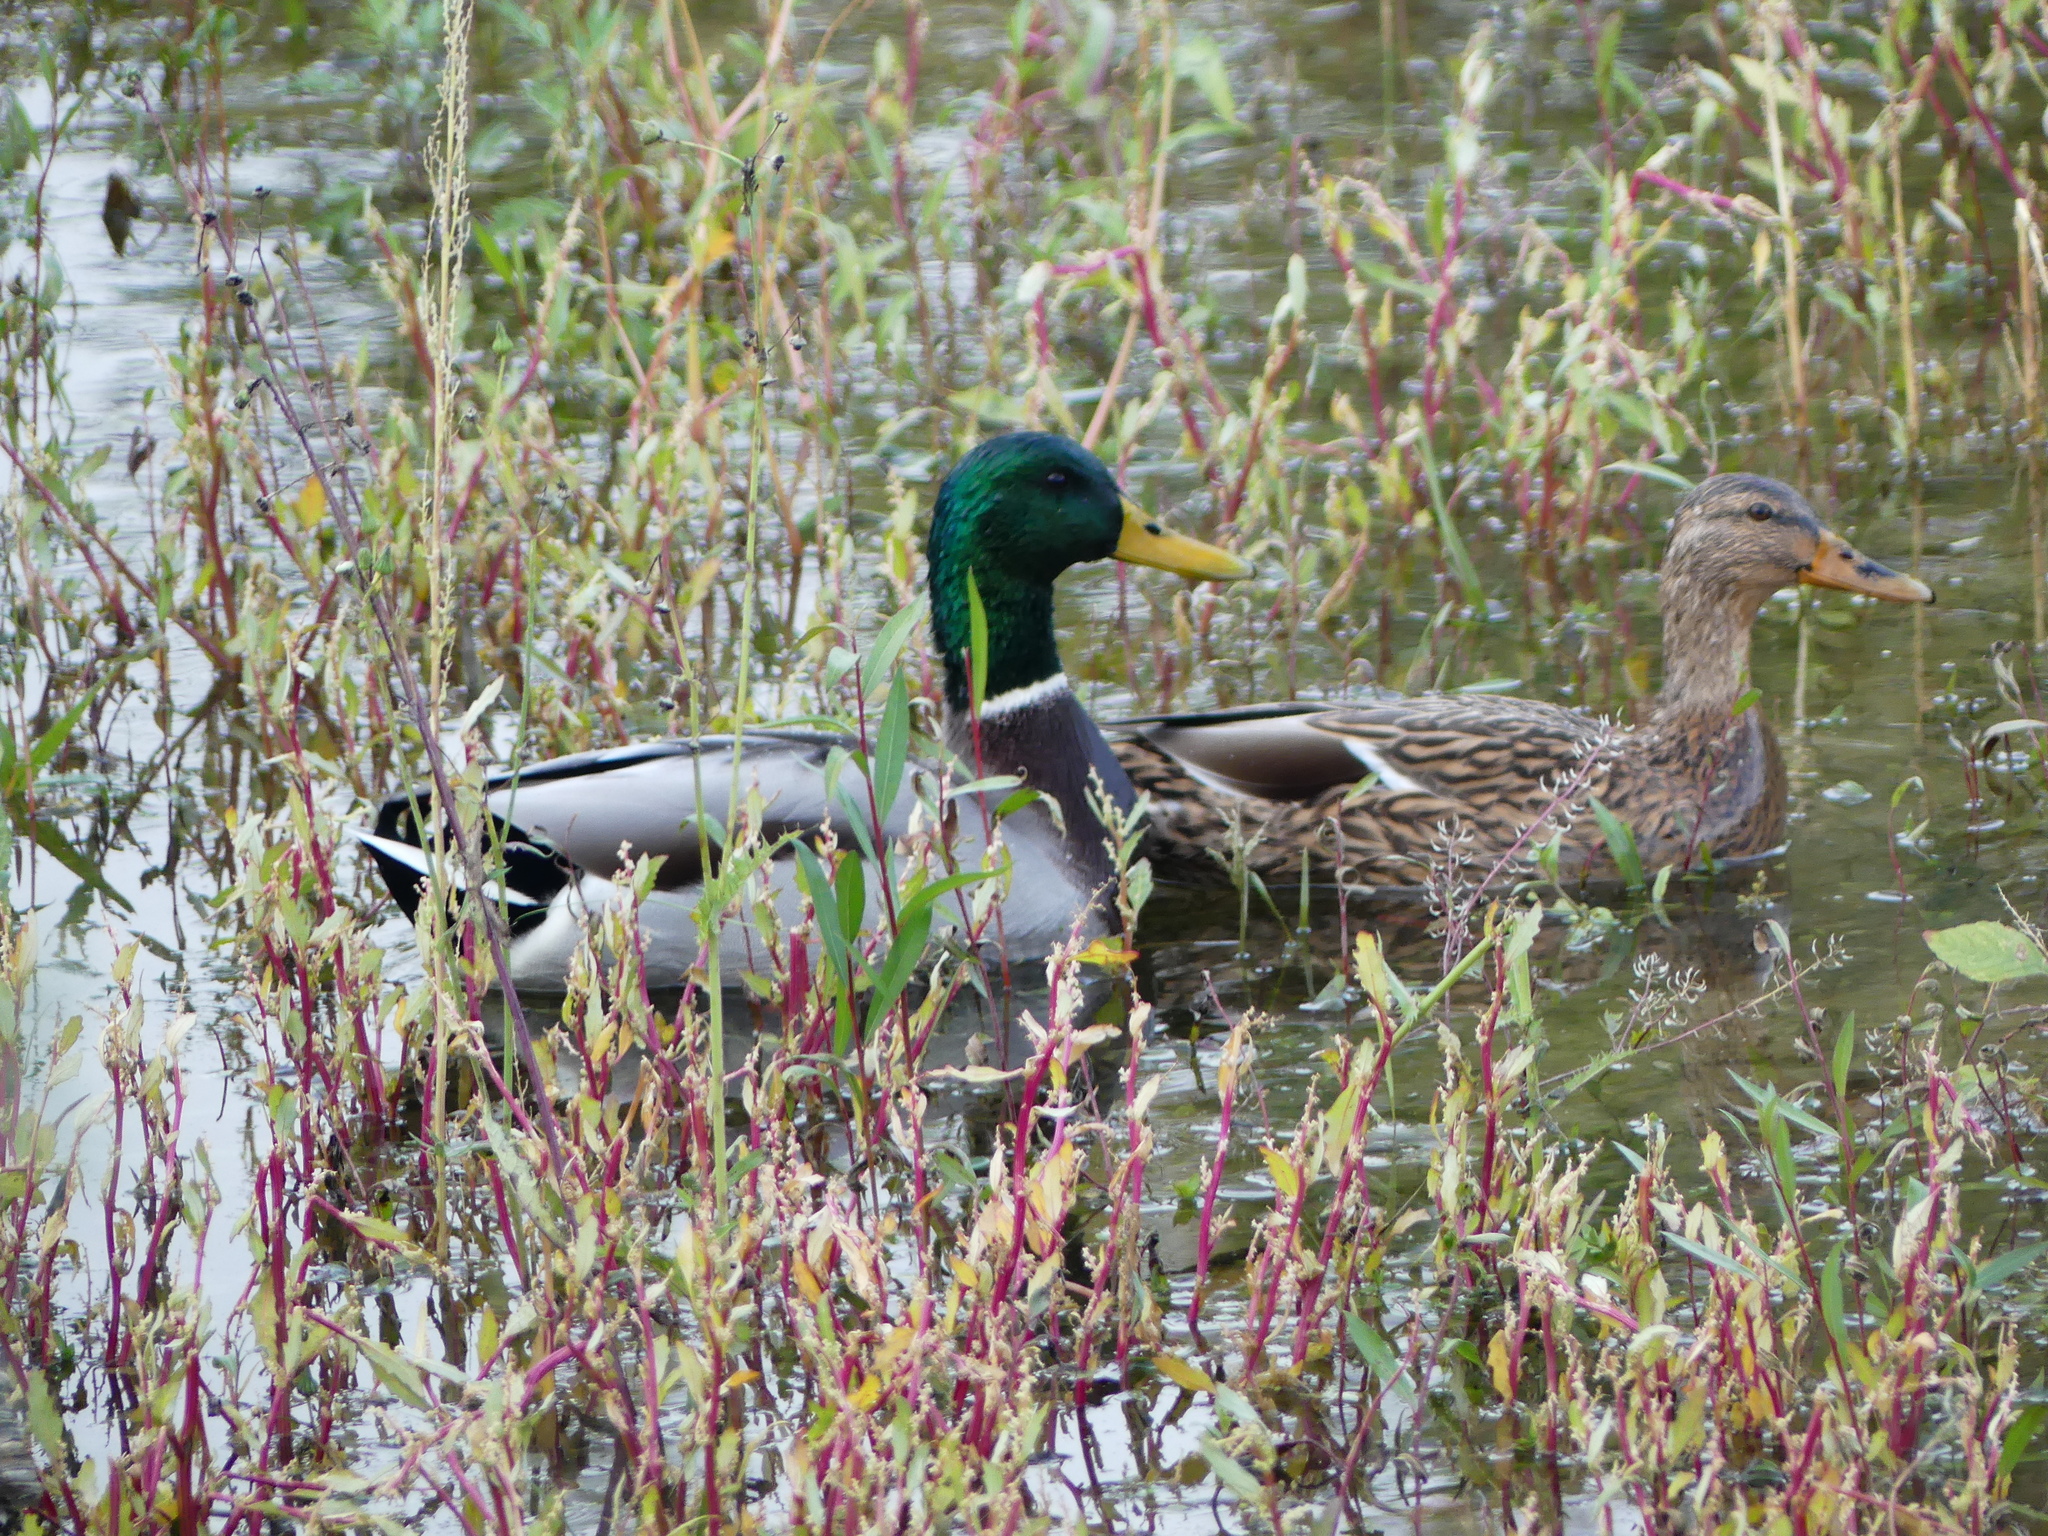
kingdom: Animalia
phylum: Chordata
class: Aves
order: Anseriformes
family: Anatidae
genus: Anas
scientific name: Anas platyrhynchos
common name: Mallard
